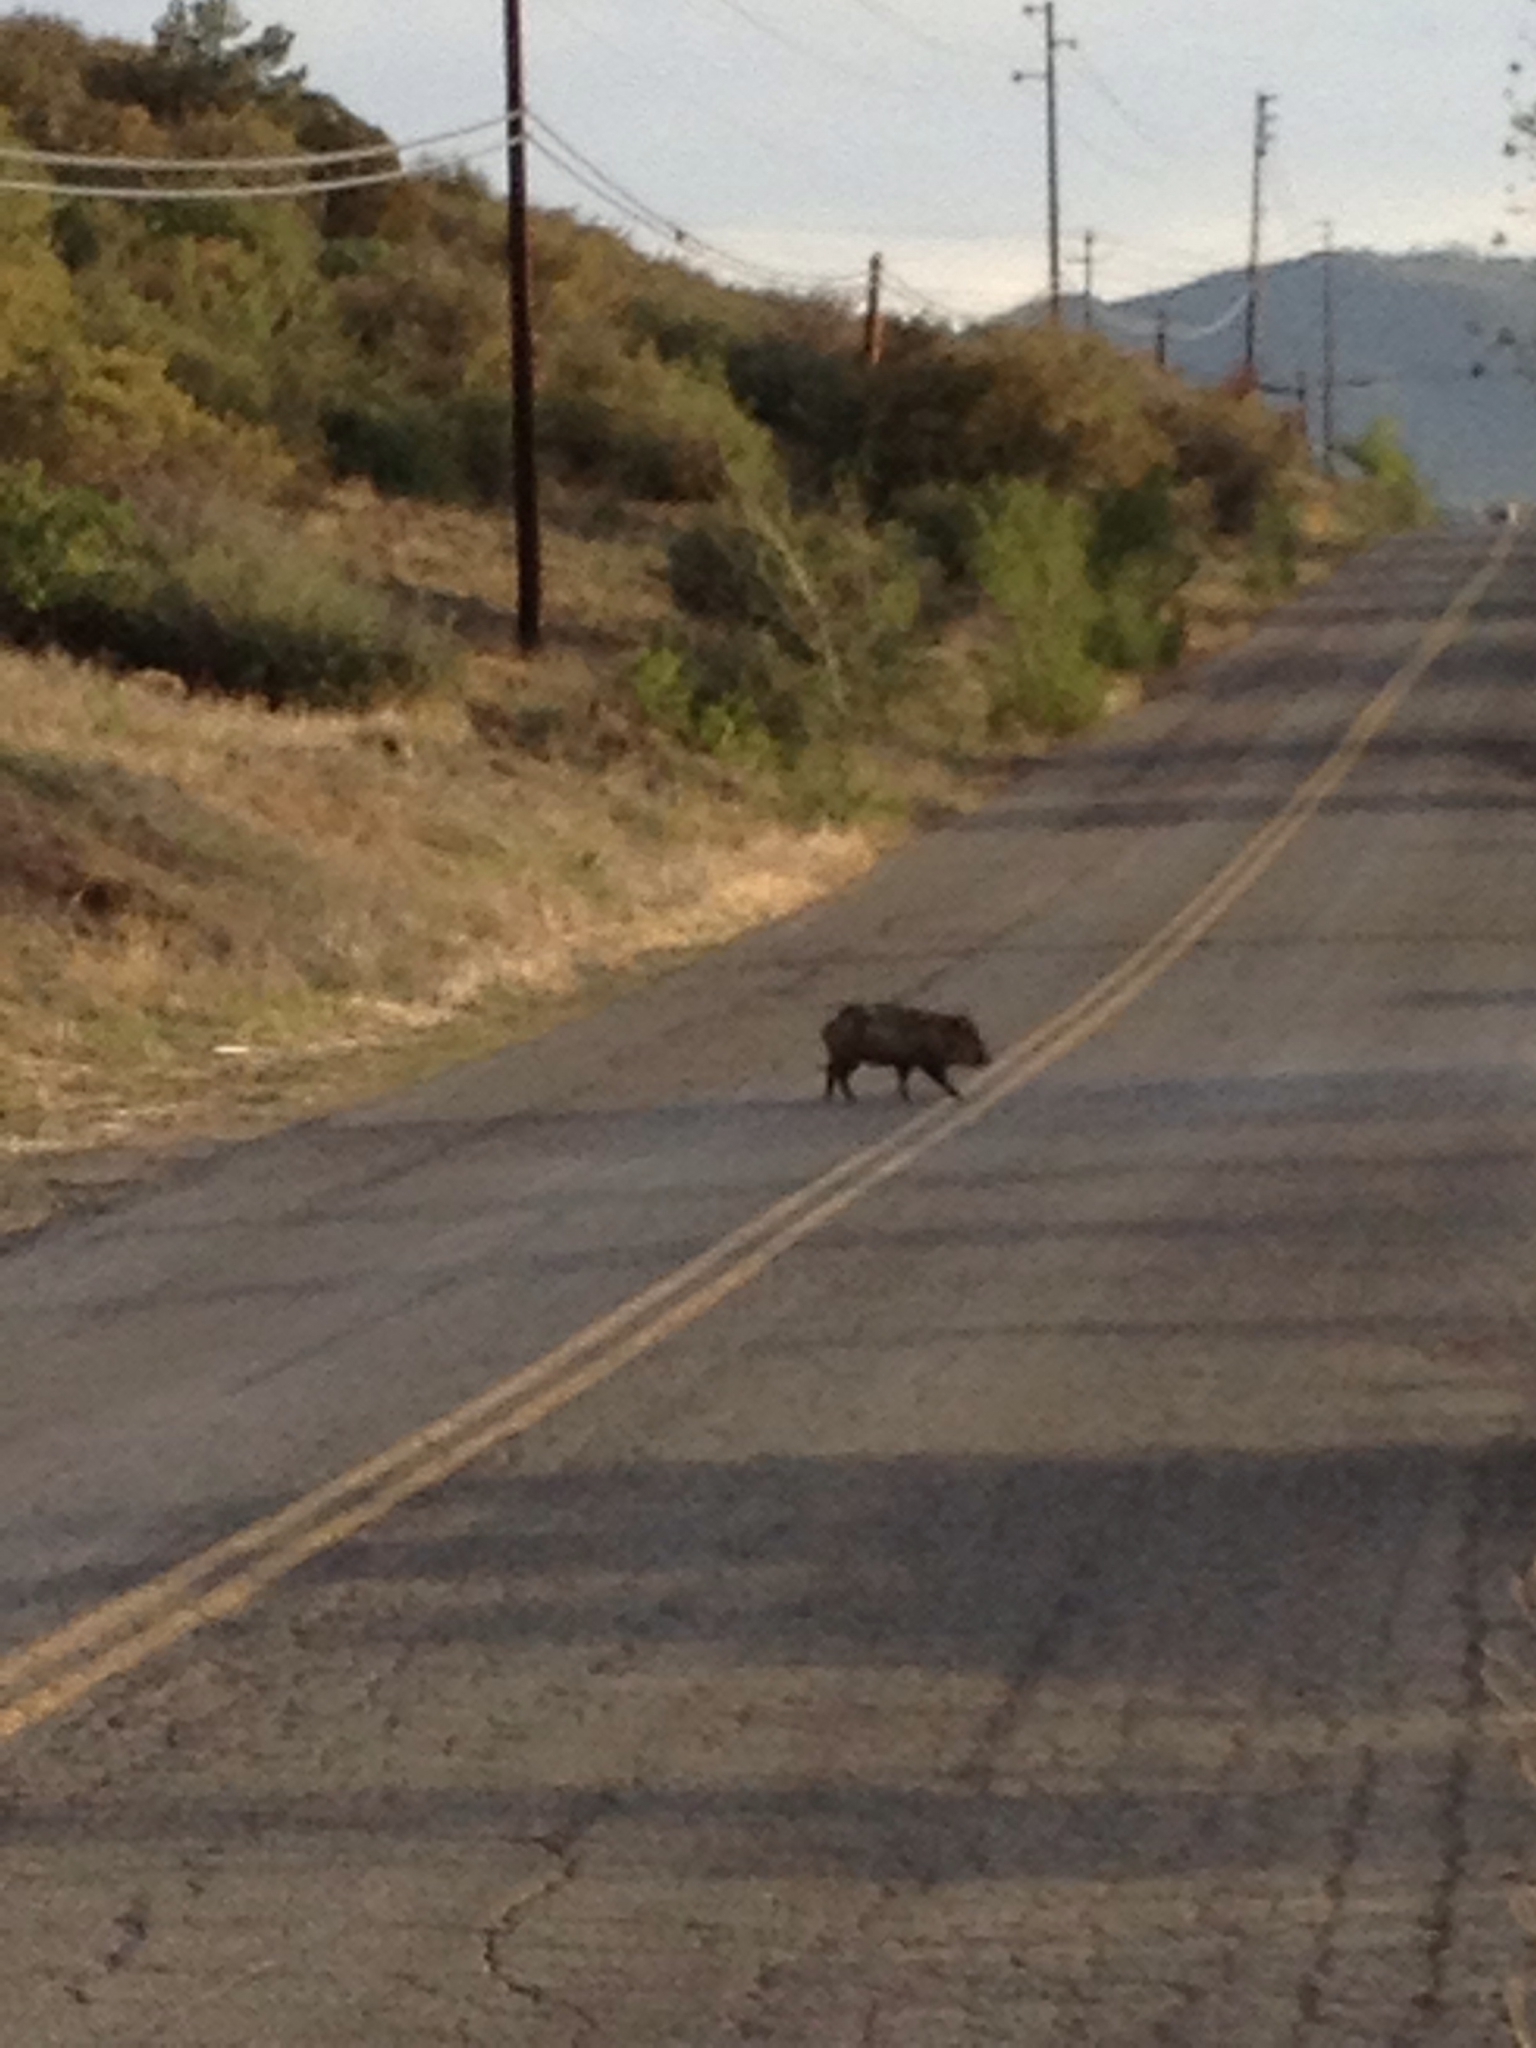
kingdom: Animalia
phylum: Chordata
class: Mammalia
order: Artiodactyla
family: Tayassuidae
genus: Pecari
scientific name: Pecari tajacu
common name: Collared peccary
